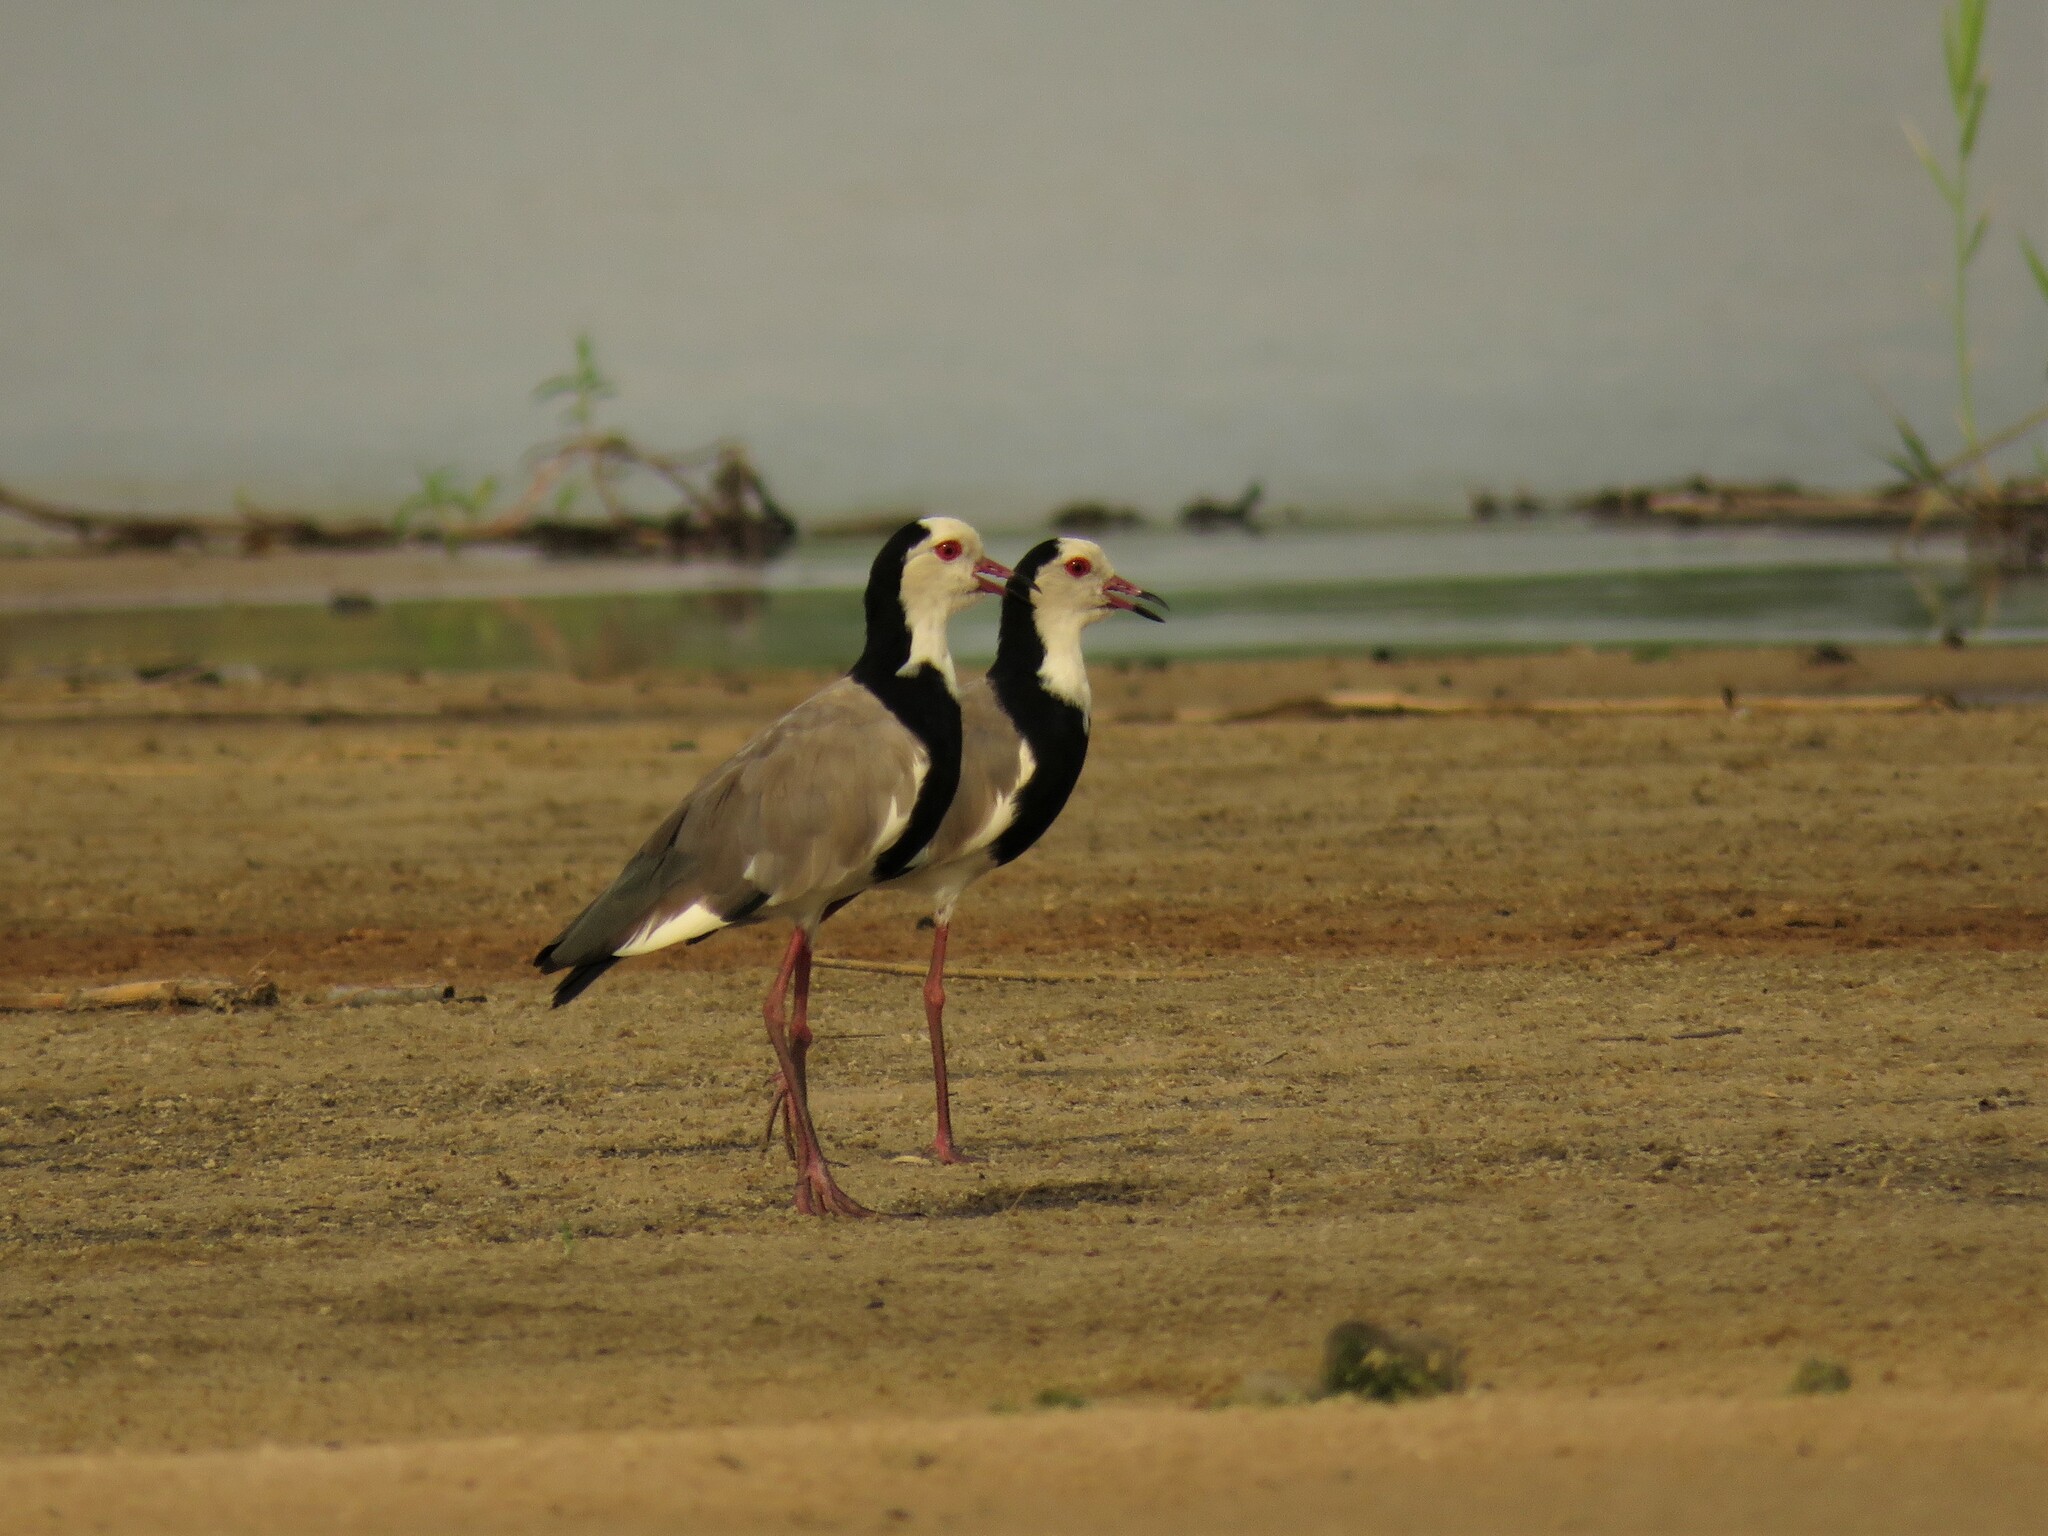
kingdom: Animalia
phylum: Chordata
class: Aves
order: Charadriiformes
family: Charadriidae
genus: Vanellus
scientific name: Vanellus crassirostris
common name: Long-toed lapwing
